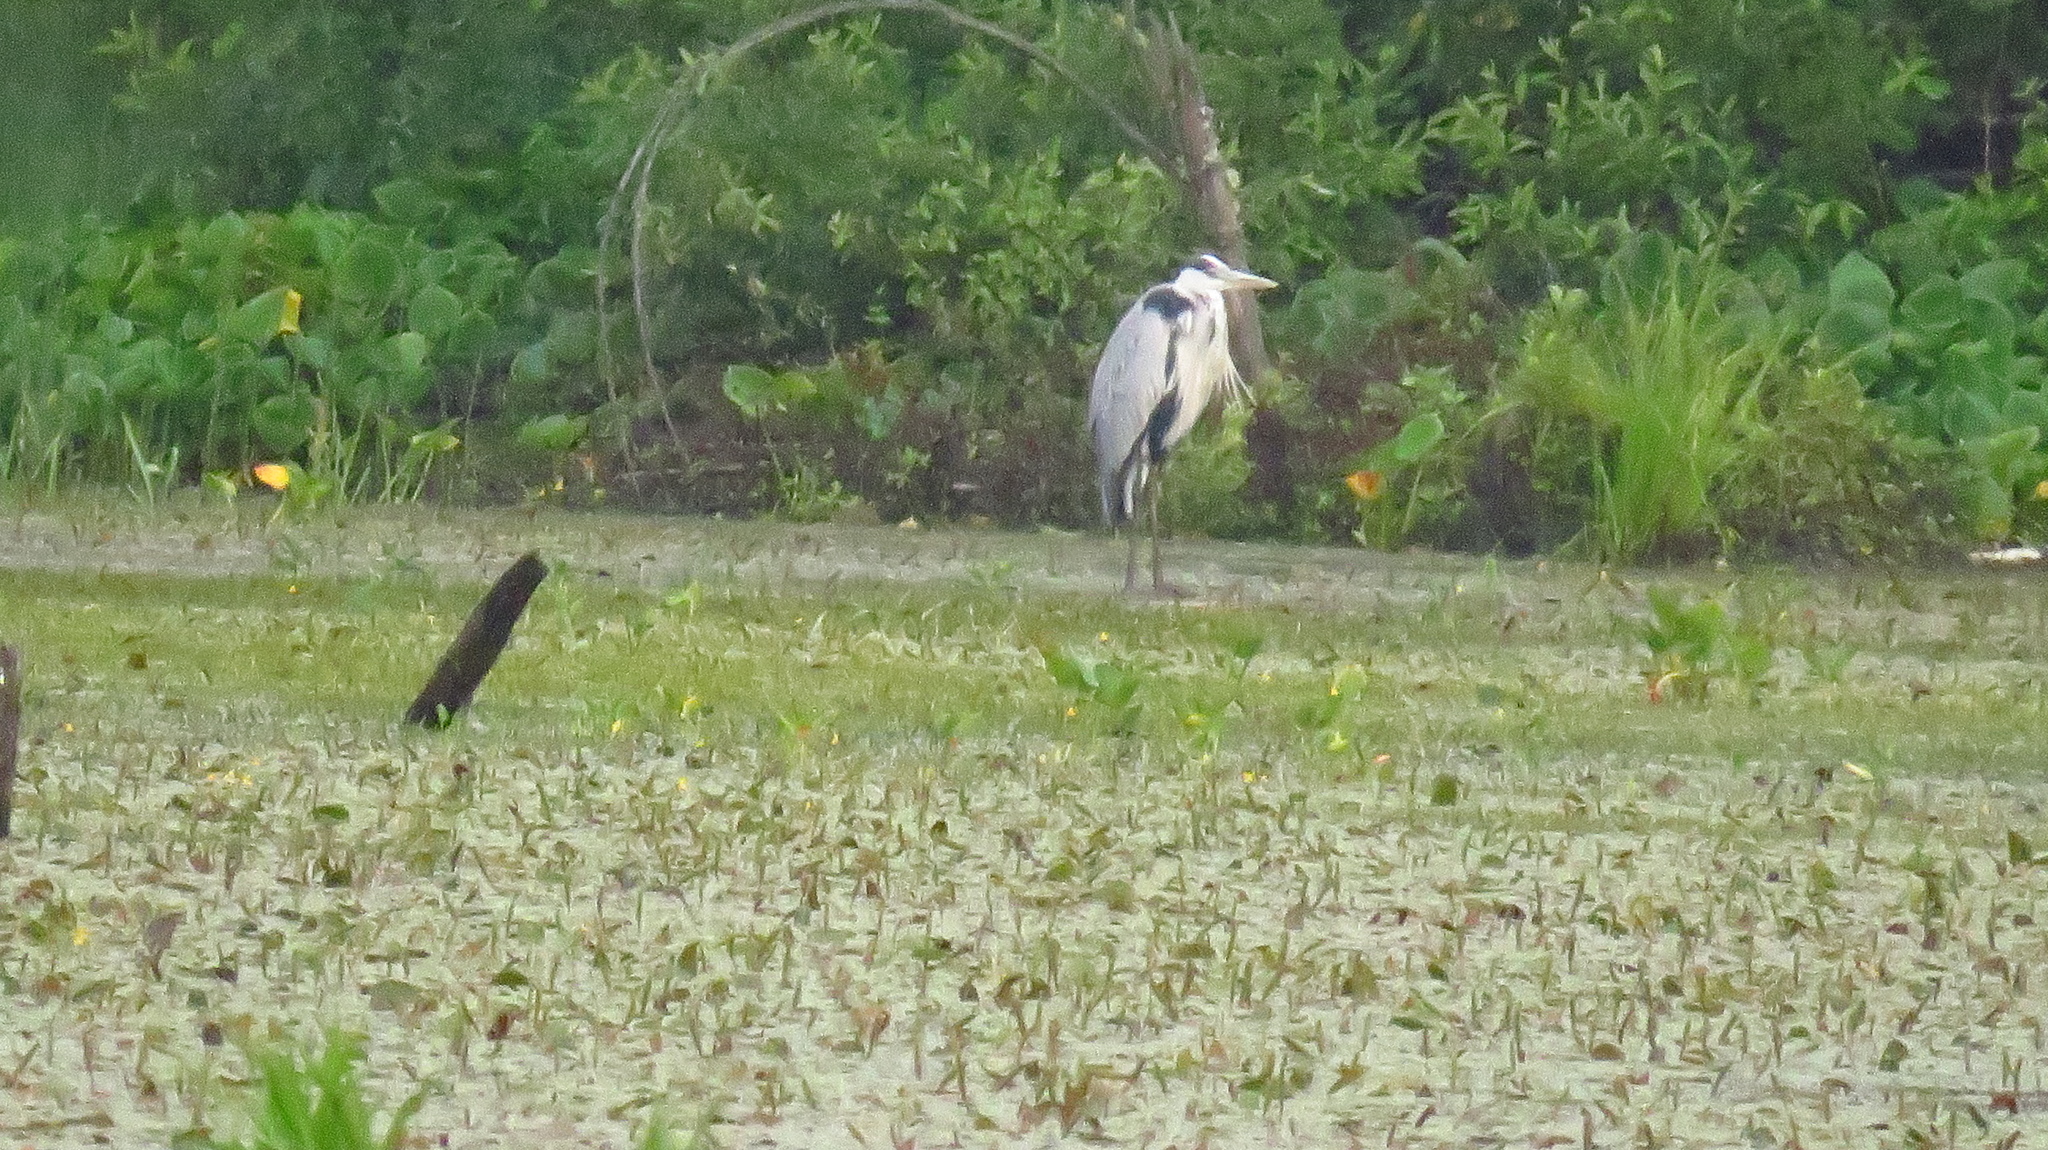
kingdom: Animalia
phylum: Chordata
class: Aves
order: Pelecaniformes
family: Ardeidae
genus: Ardea
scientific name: Ardea cinerea
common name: Grey heron
